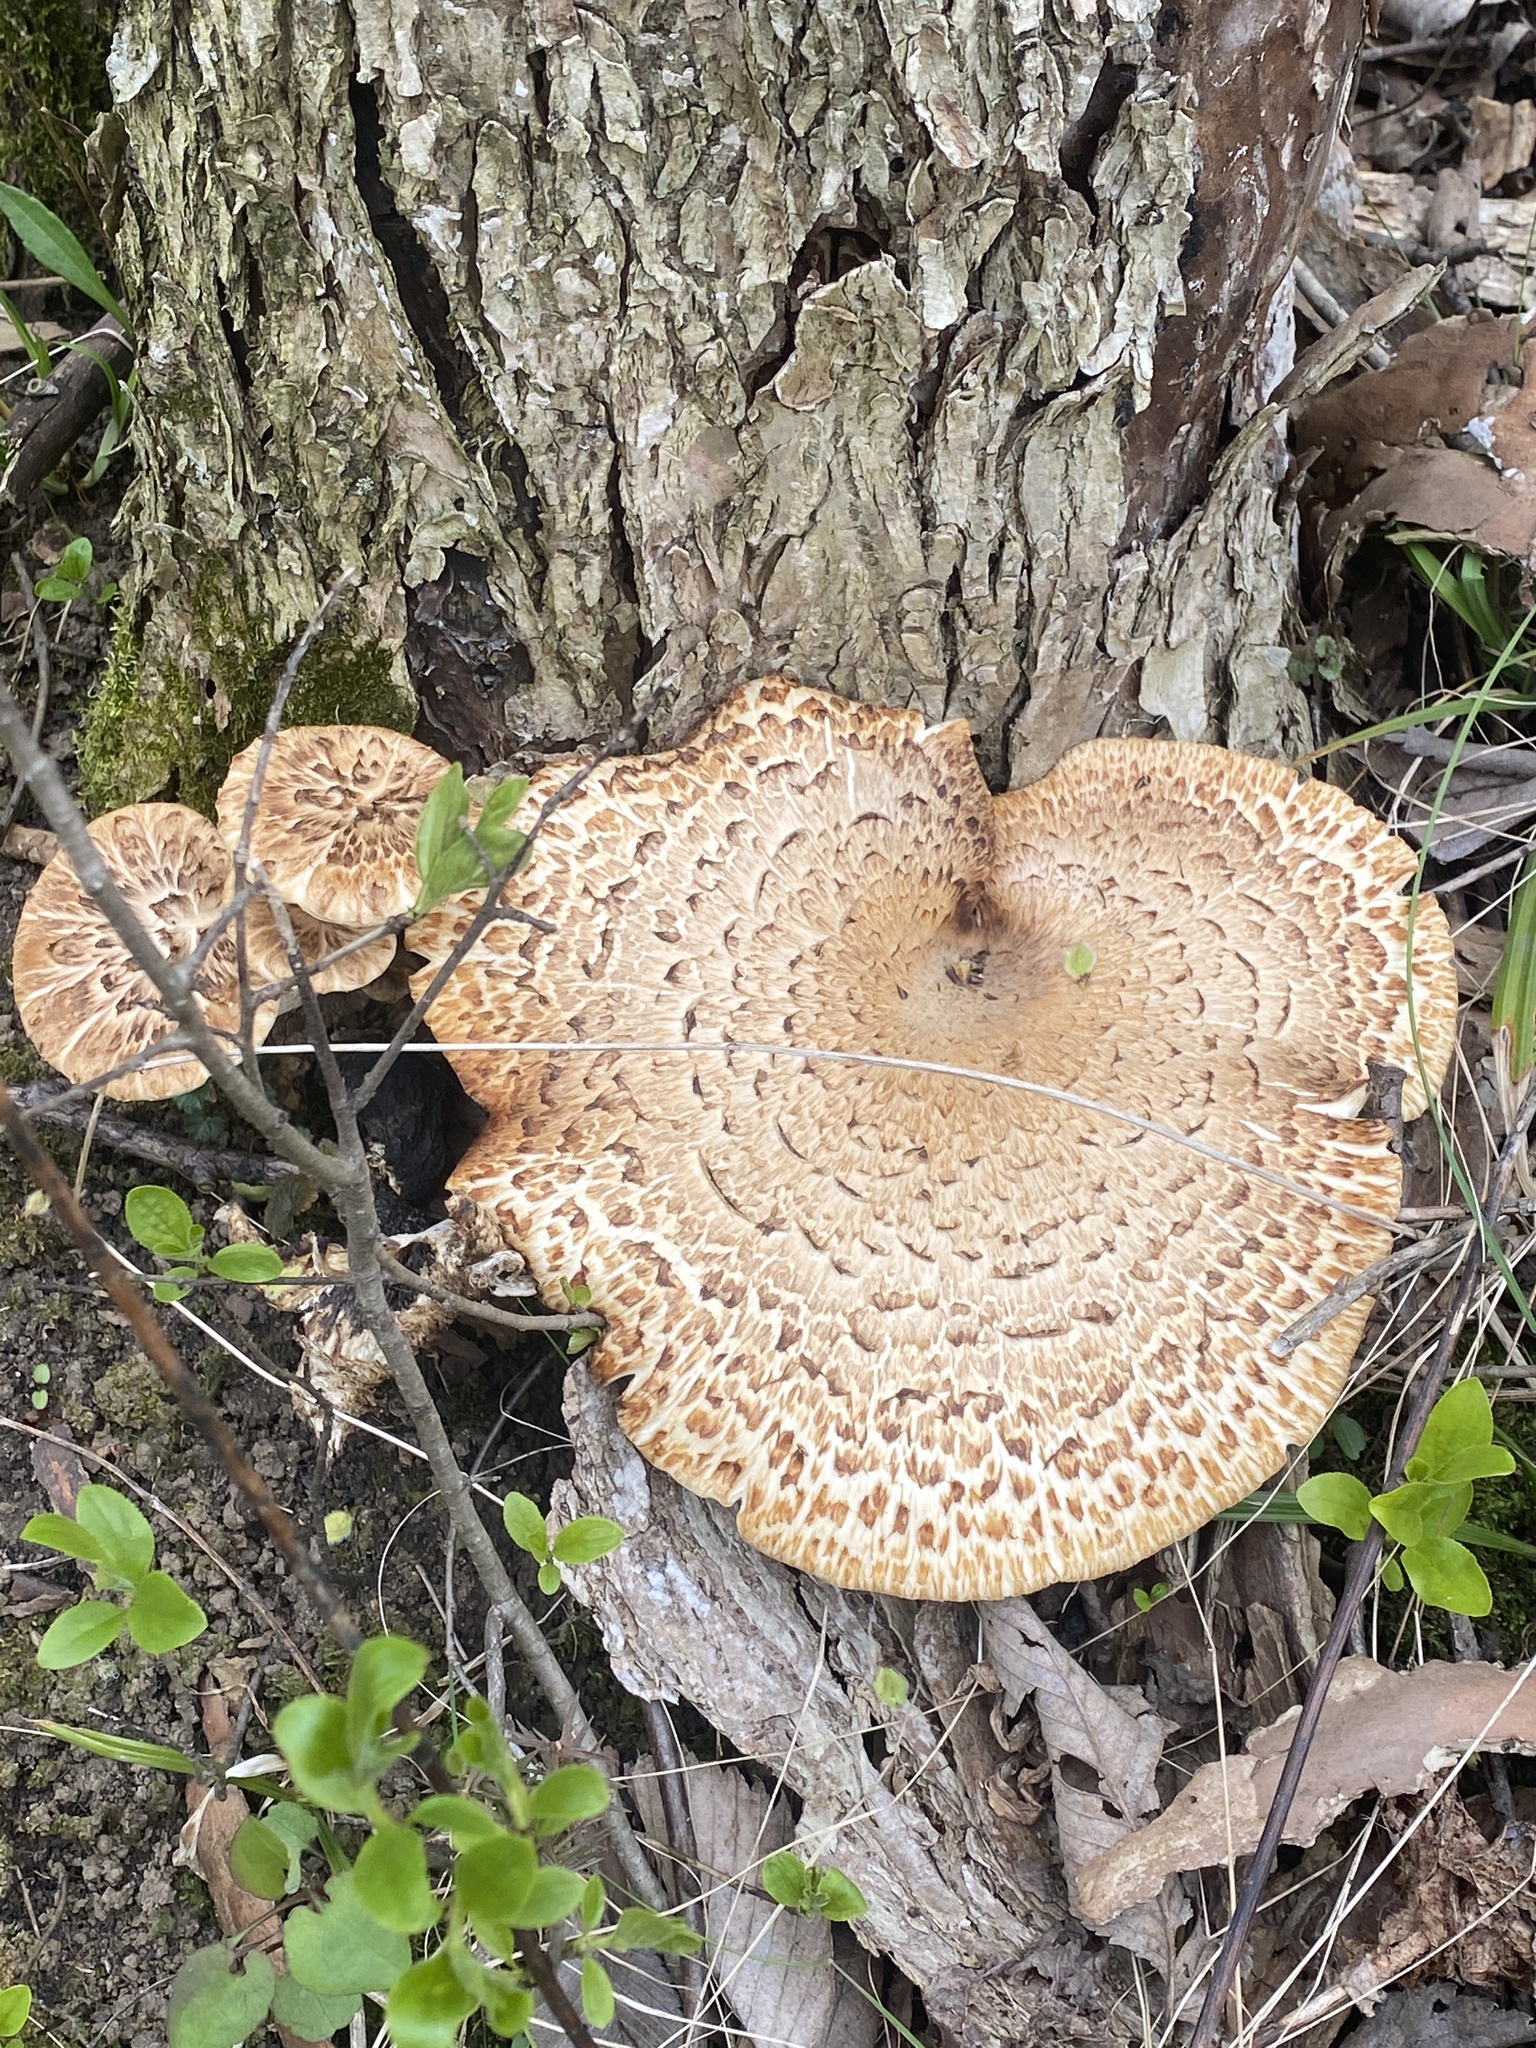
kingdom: Fungi
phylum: Basidiomycota
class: Agaricomycetes
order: Polyporales
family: Polyporaceae
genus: Cerioporus
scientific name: Cerioporus squamosus
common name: Dryad's saddle
